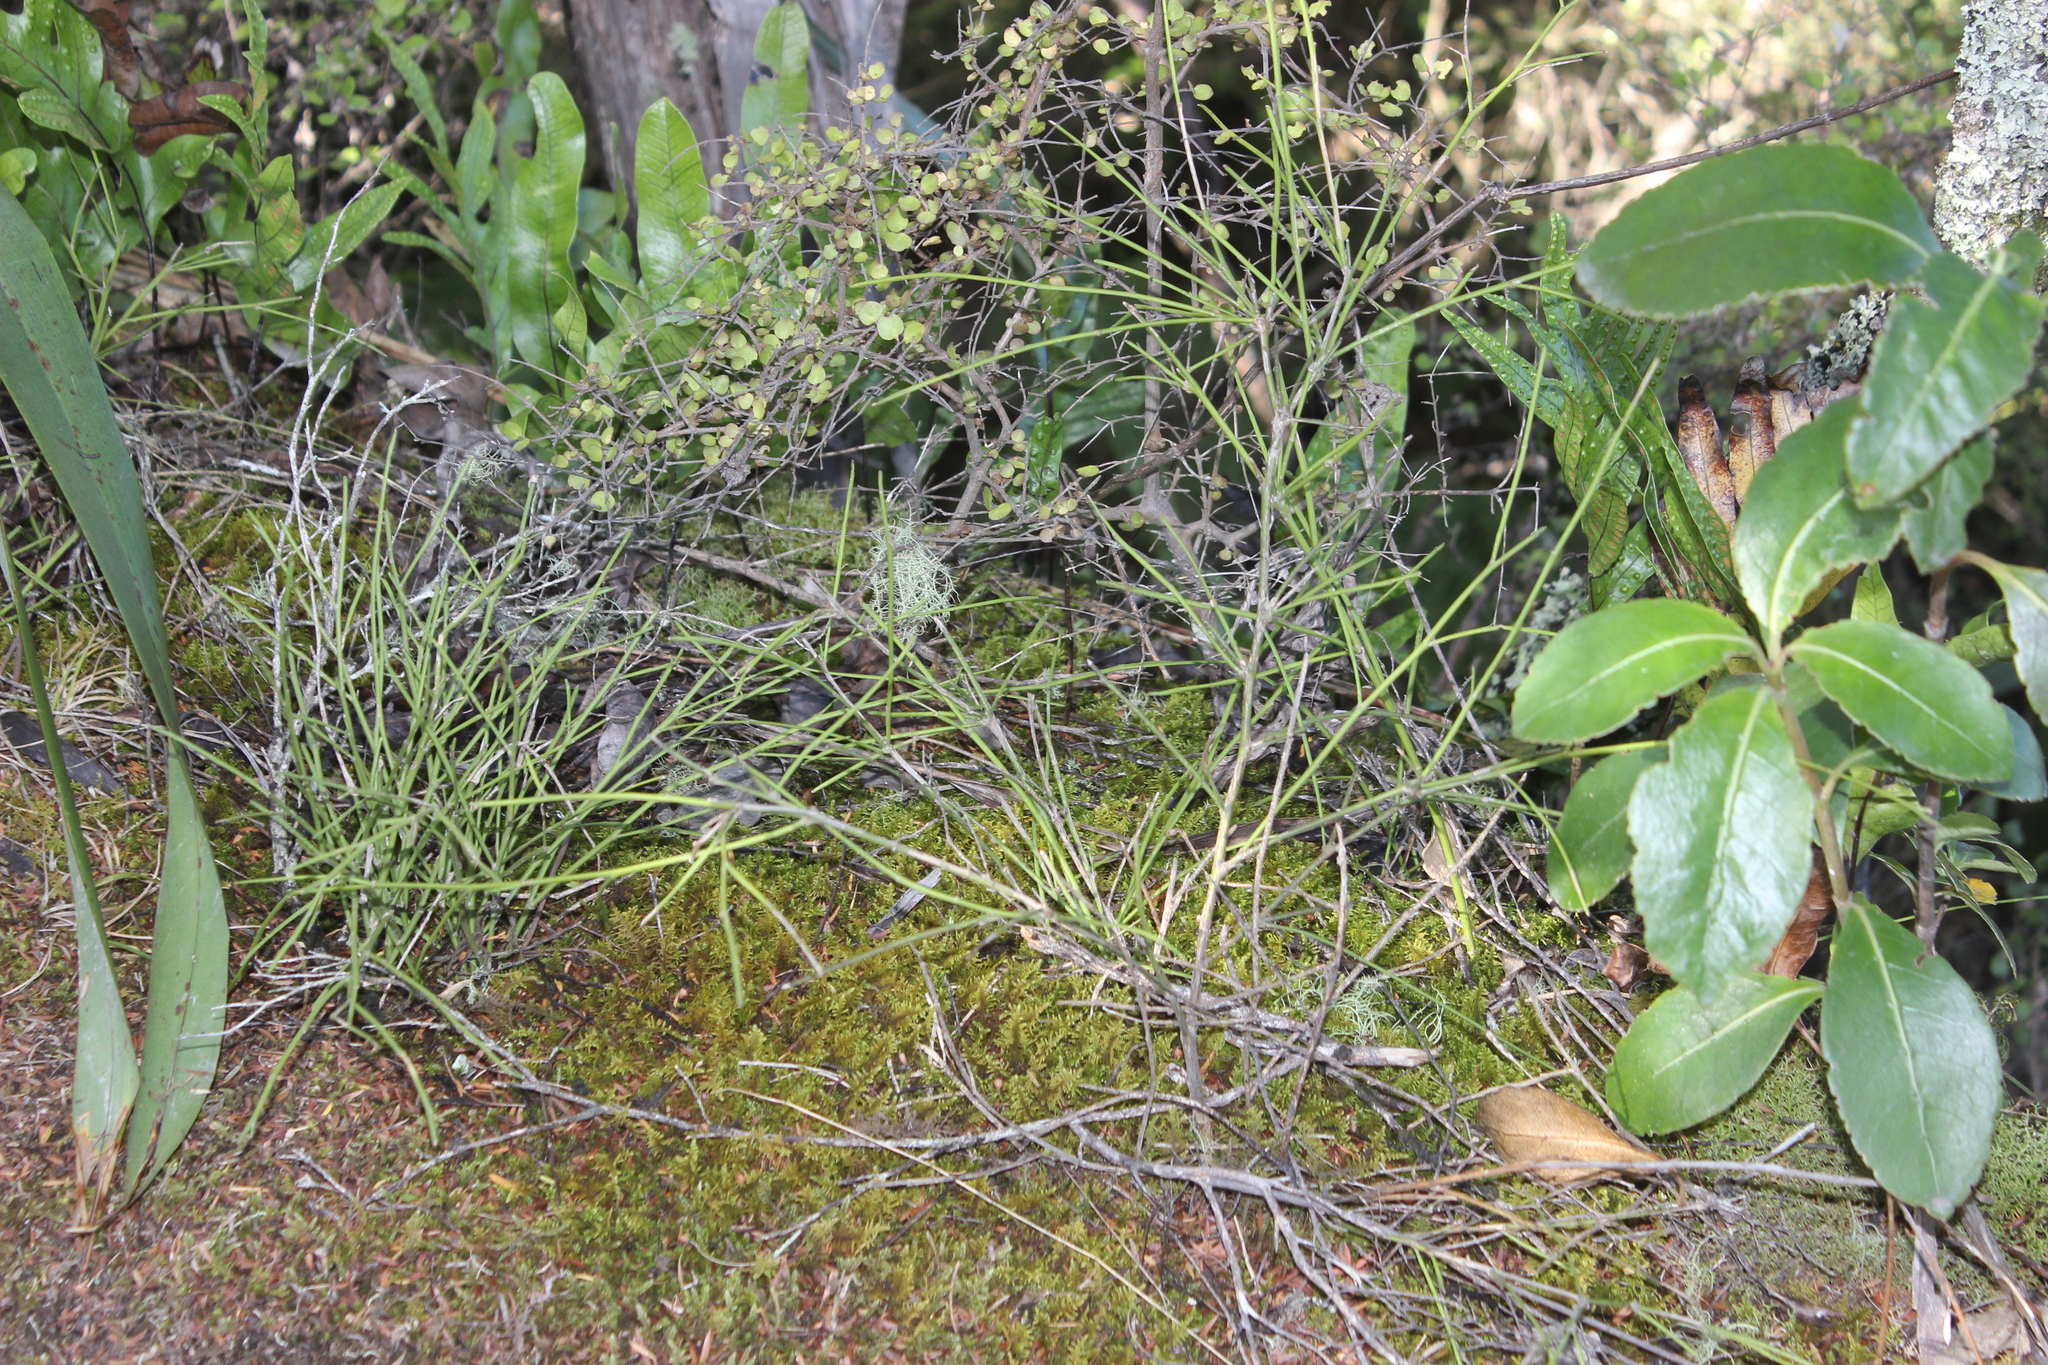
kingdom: Plantae
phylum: Tracheophyta
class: Magnoliopsida
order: Fabales
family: Fabaceae
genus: Carmichaelia
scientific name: Carmichaelia australis
